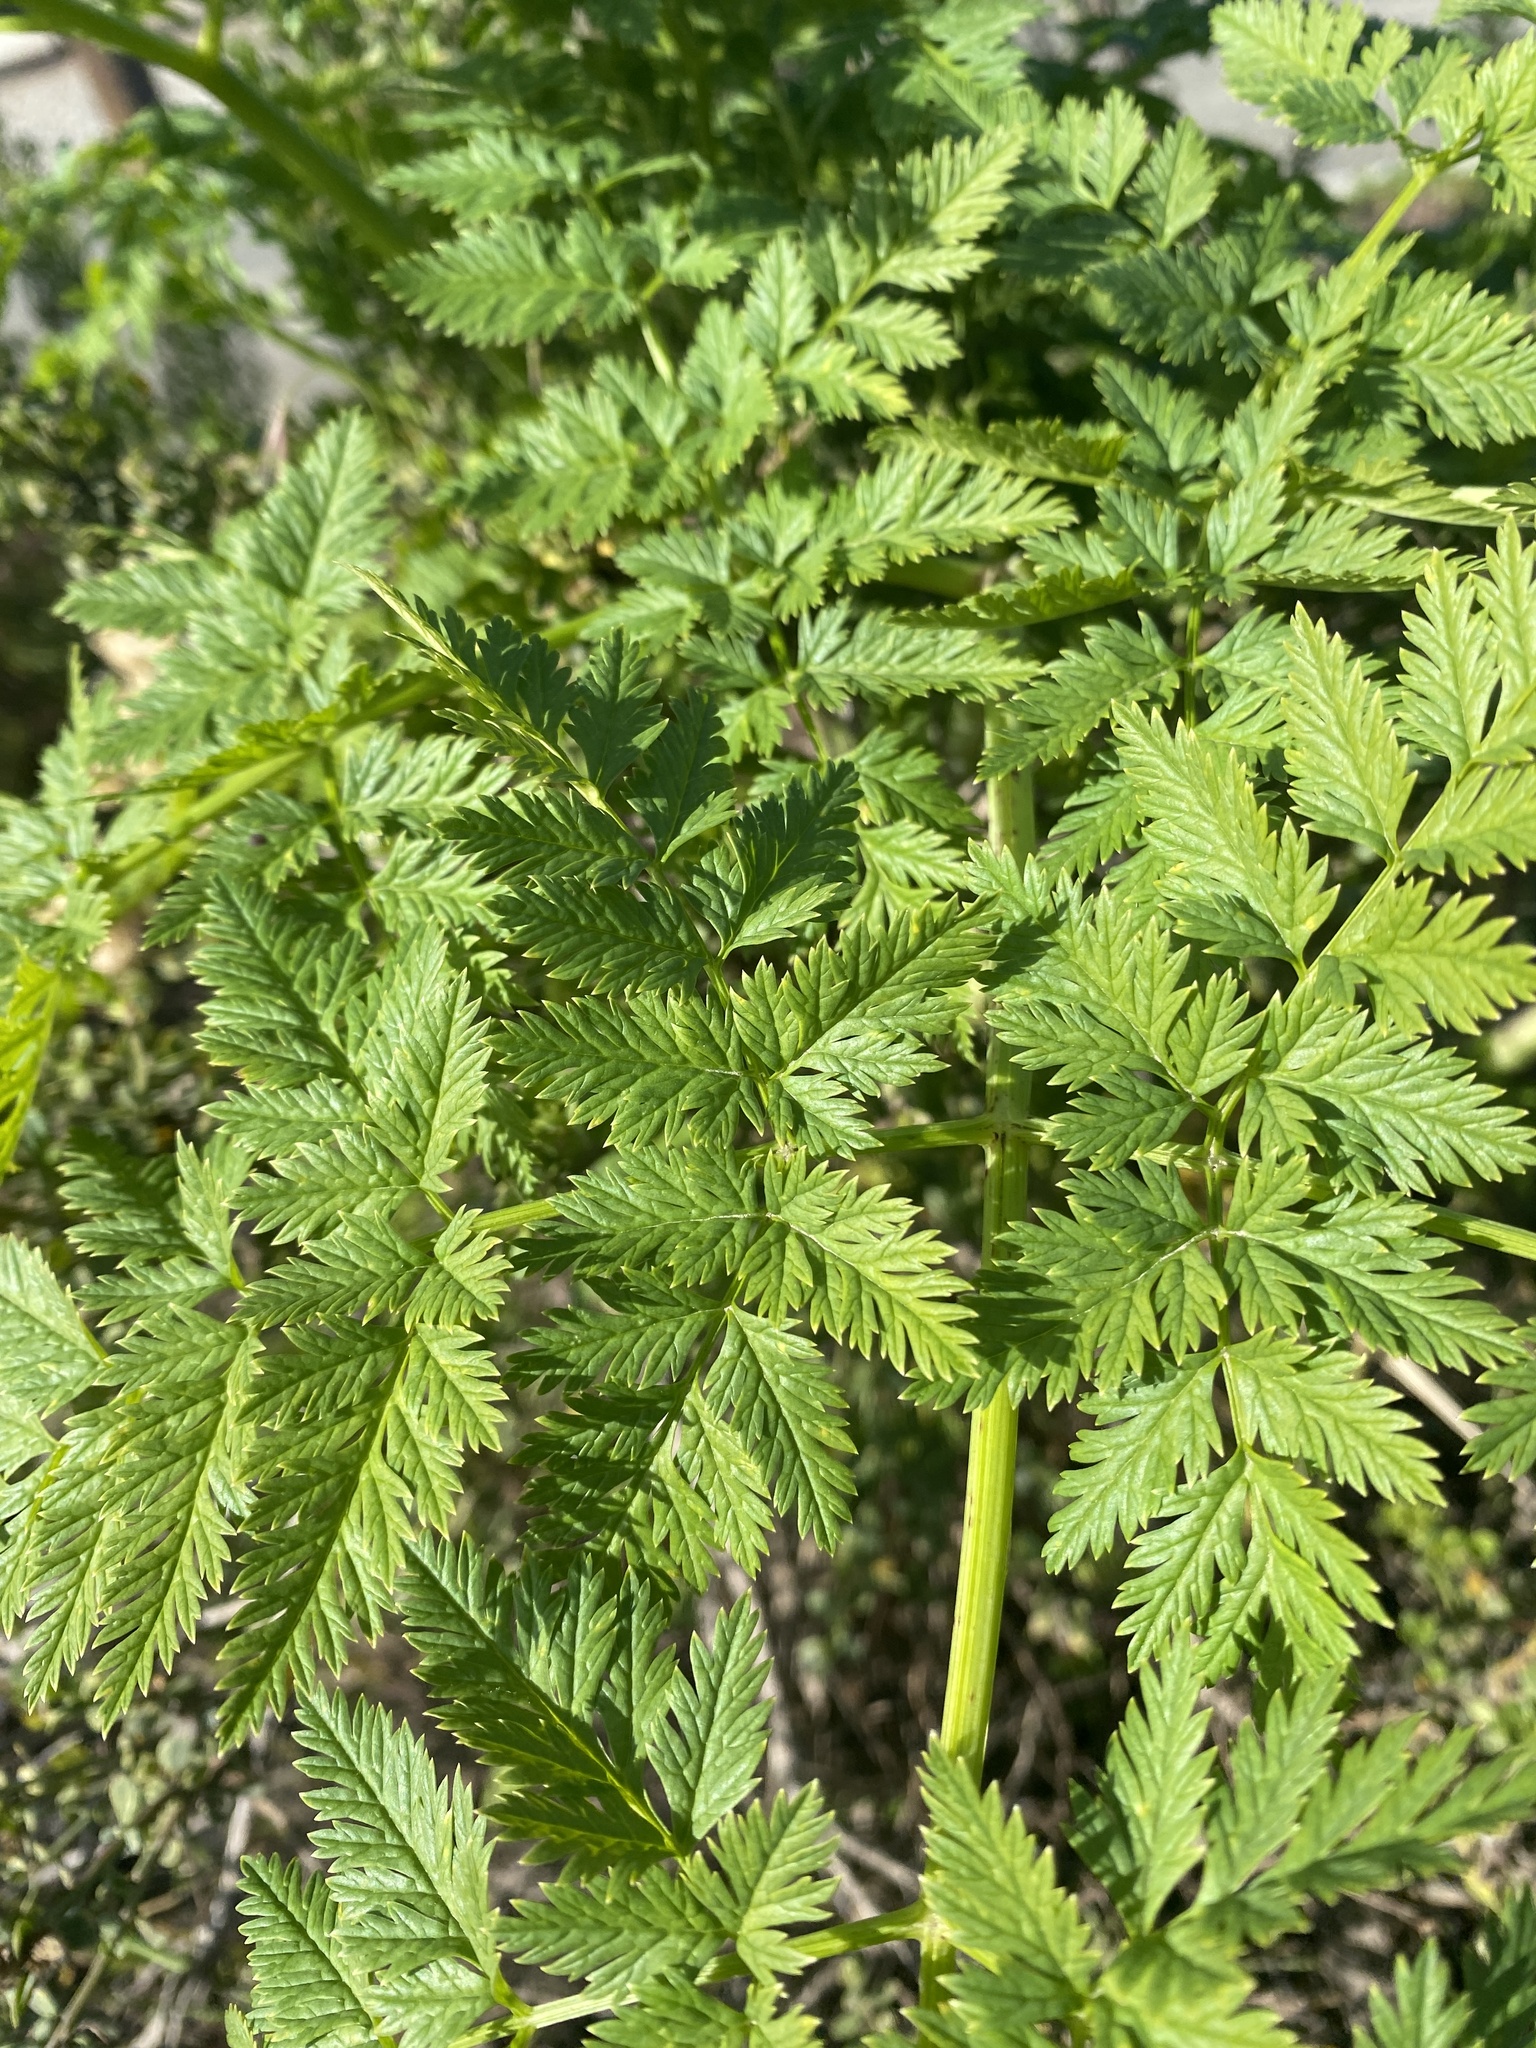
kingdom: Plantae
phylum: Tracheophyta
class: Magnoliopsida
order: Apiales
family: Apiaceae
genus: Conium
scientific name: Conium maculatum
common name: Hemlock
